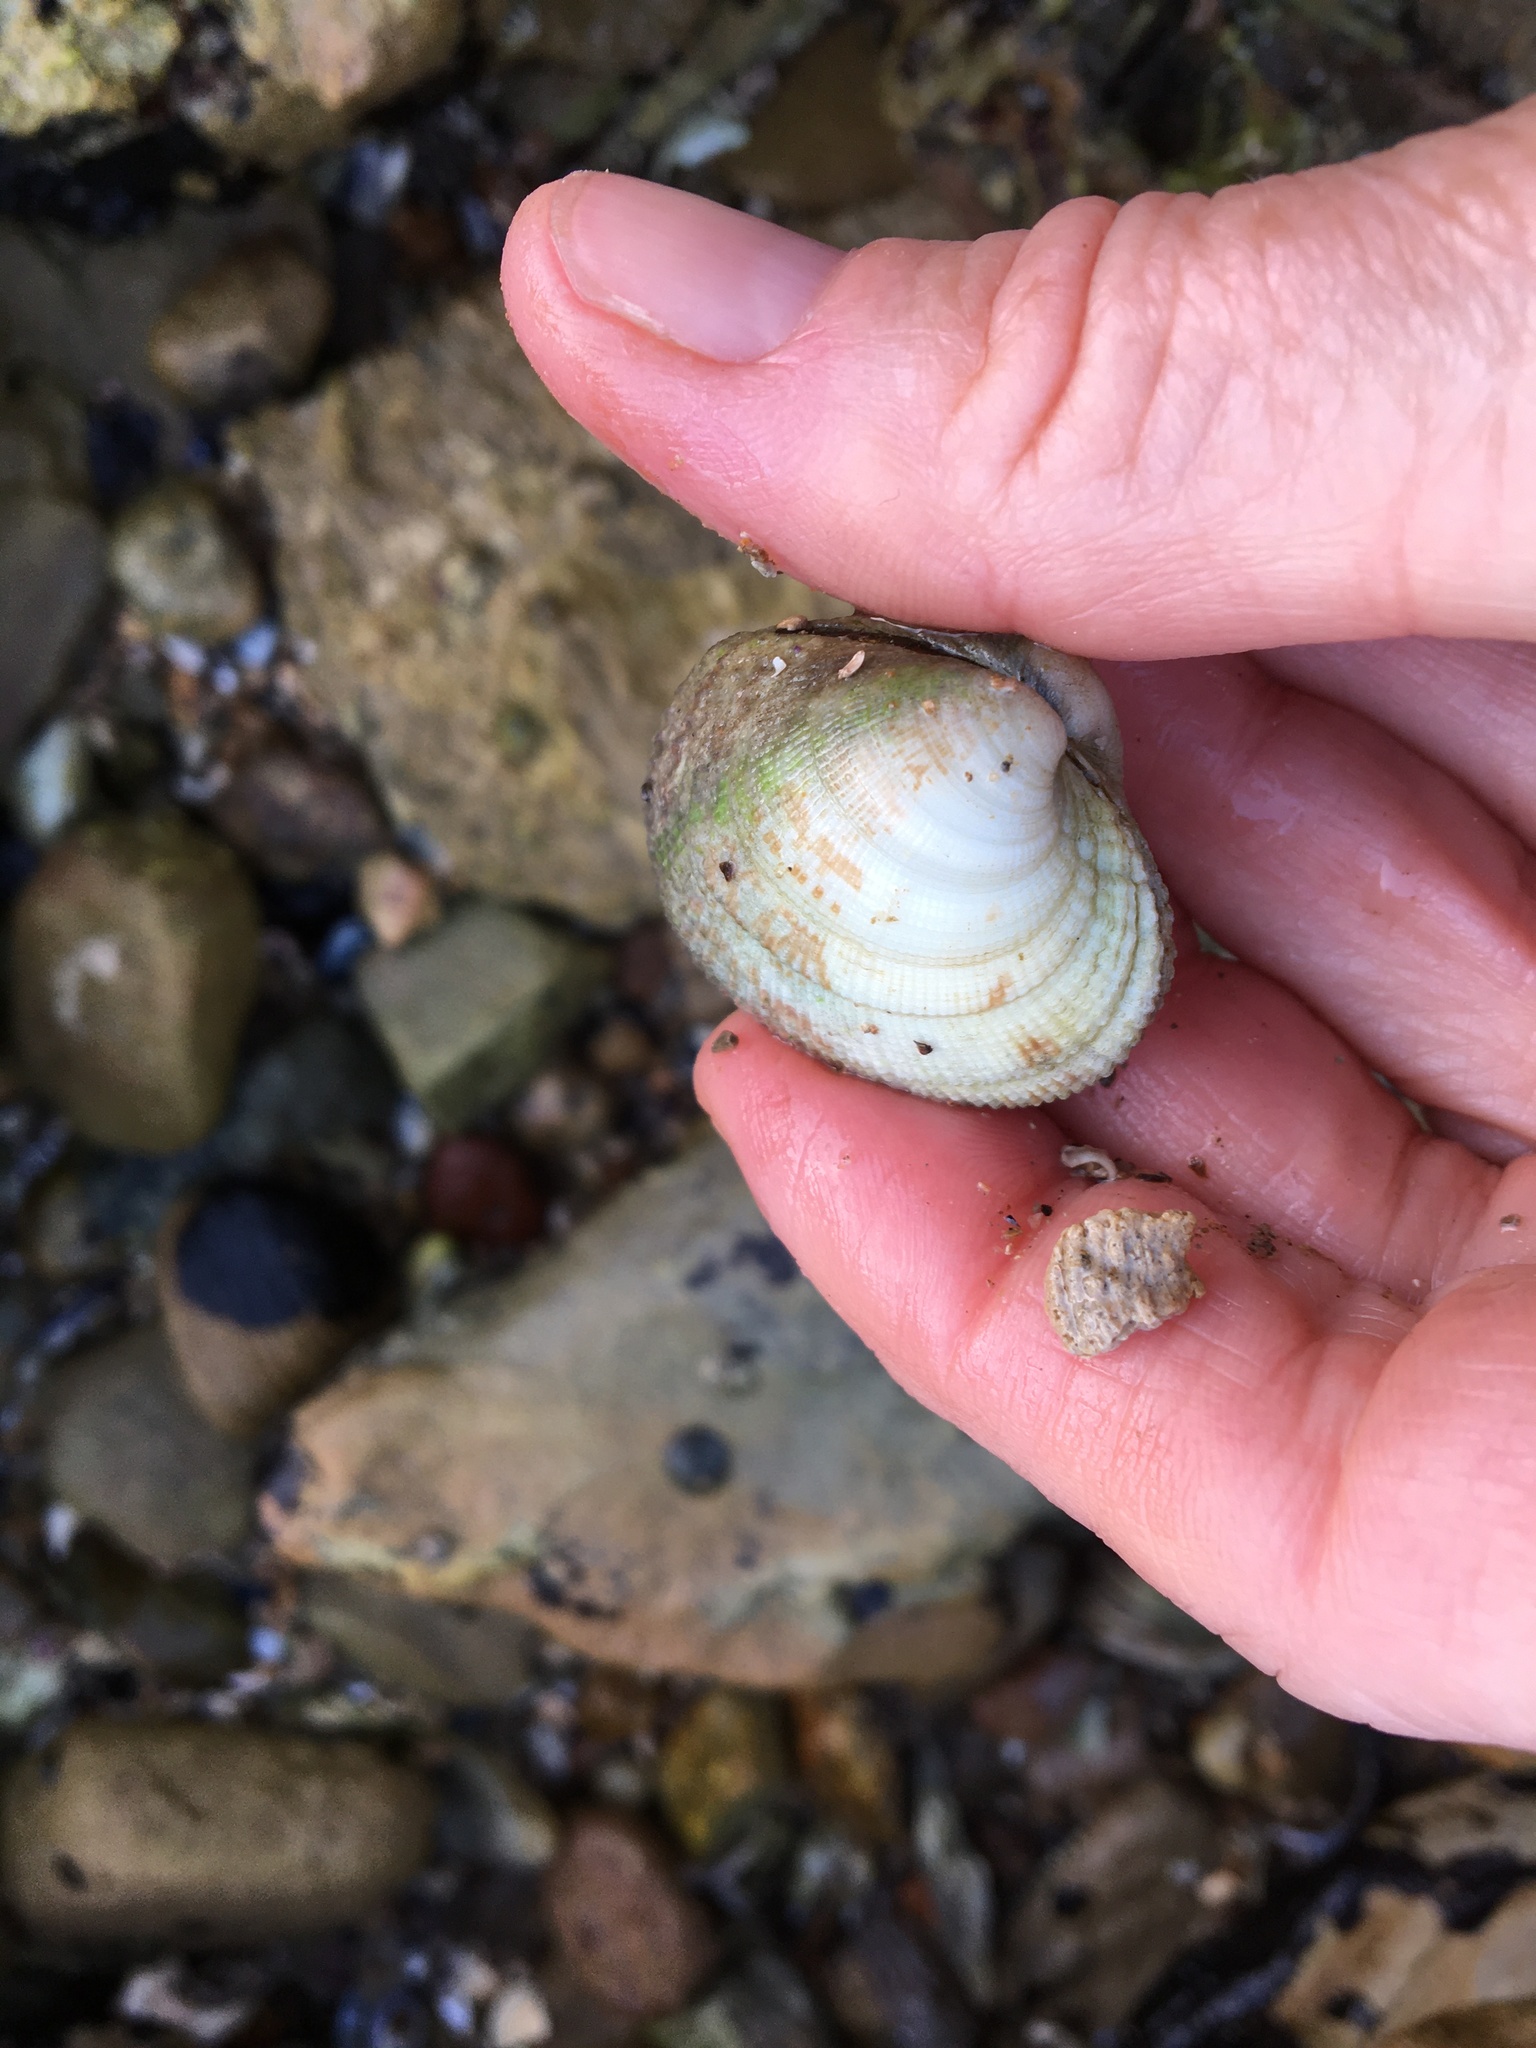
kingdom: Animalia
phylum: Mollusca
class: Bivalvia
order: Venerida
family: Veneridae
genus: Leukoma
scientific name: Leukoma staminea
